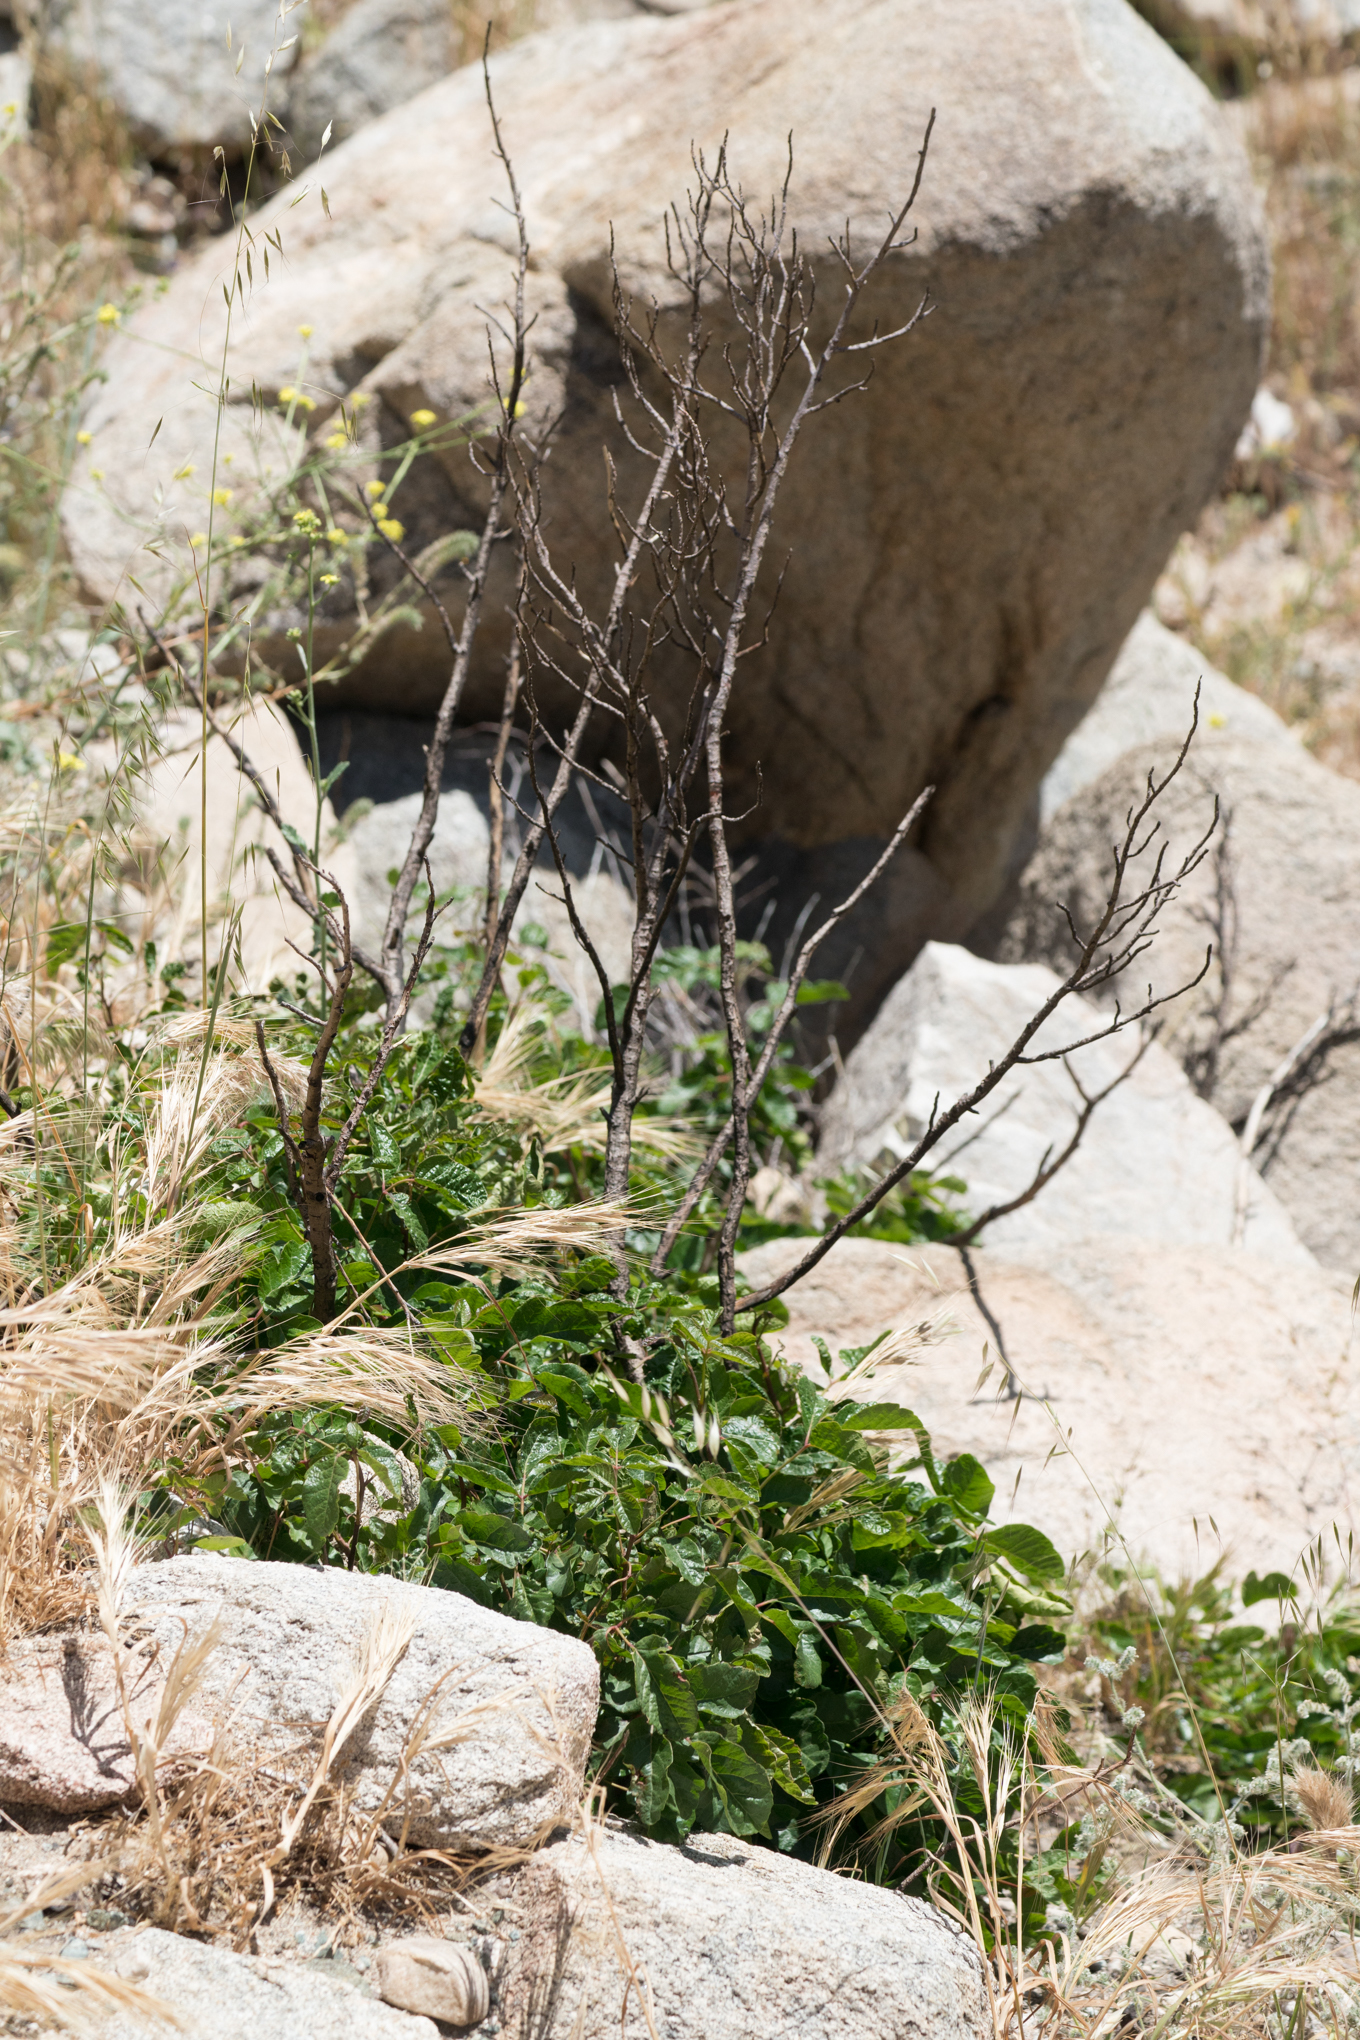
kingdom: Plantae
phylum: Tracheophyta
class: Magnoliopsida
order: Sapindales
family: Anacardiaceae
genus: Toxicodendron
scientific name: Toxicodendron diversilobum
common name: Pacific poison-oak
